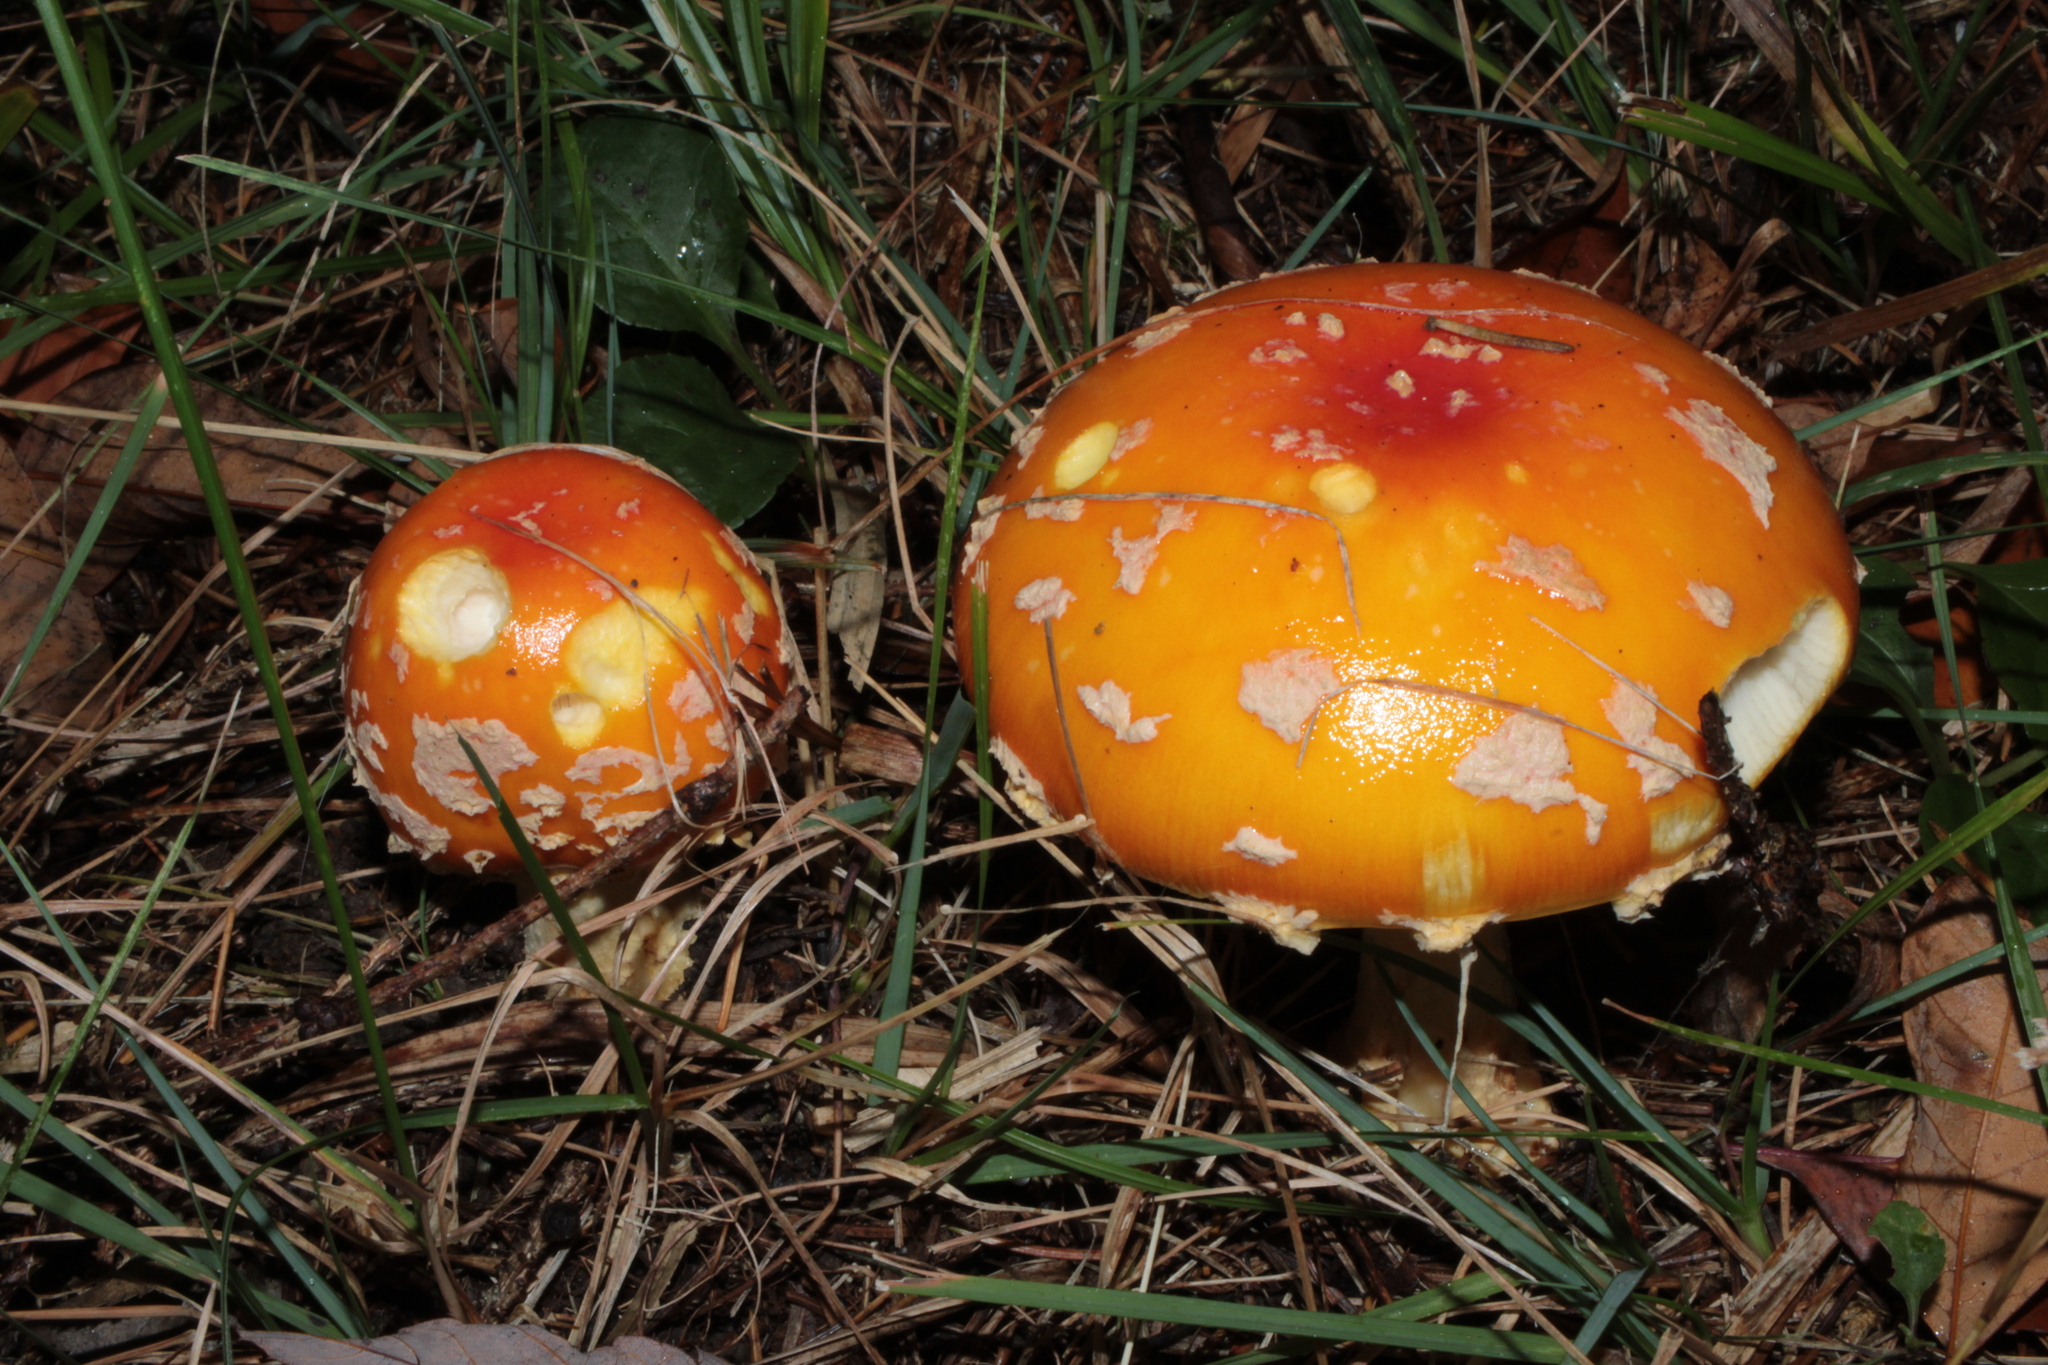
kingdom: Fungi
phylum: Basidiomycota
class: Agaricomycetes
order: Agaricales
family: Amanitaceae
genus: Amanita
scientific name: Amanita muscaria
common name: Fly agaric
